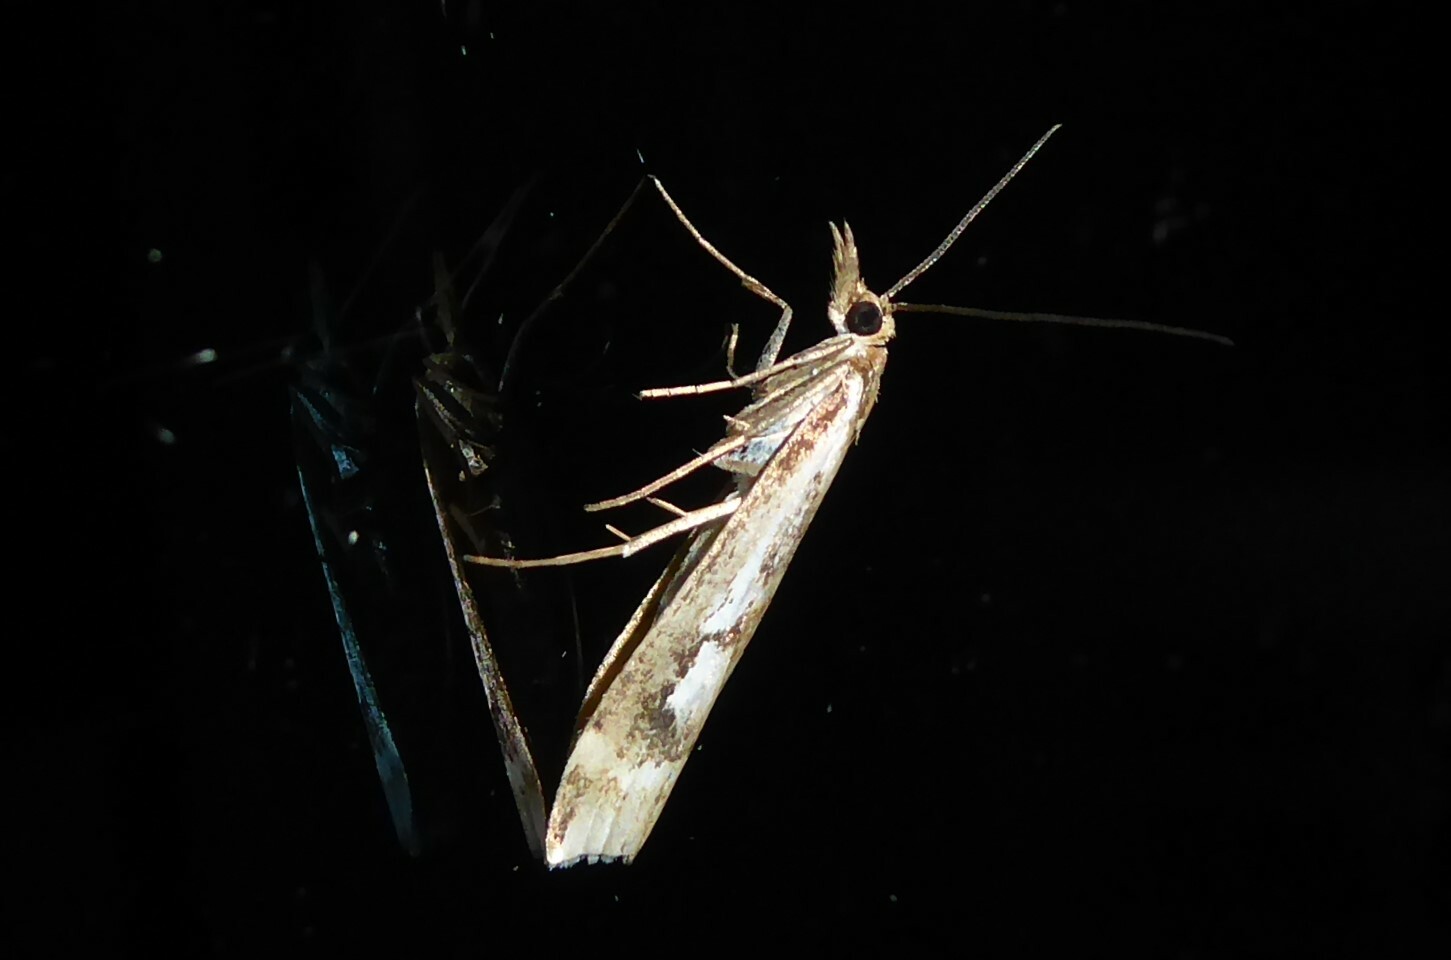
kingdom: Animalia
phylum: Arthropoda
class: Insecta
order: Lepidoptera
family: Crambidae
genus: Orocrambus
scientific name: Orocrambus vulgaris
